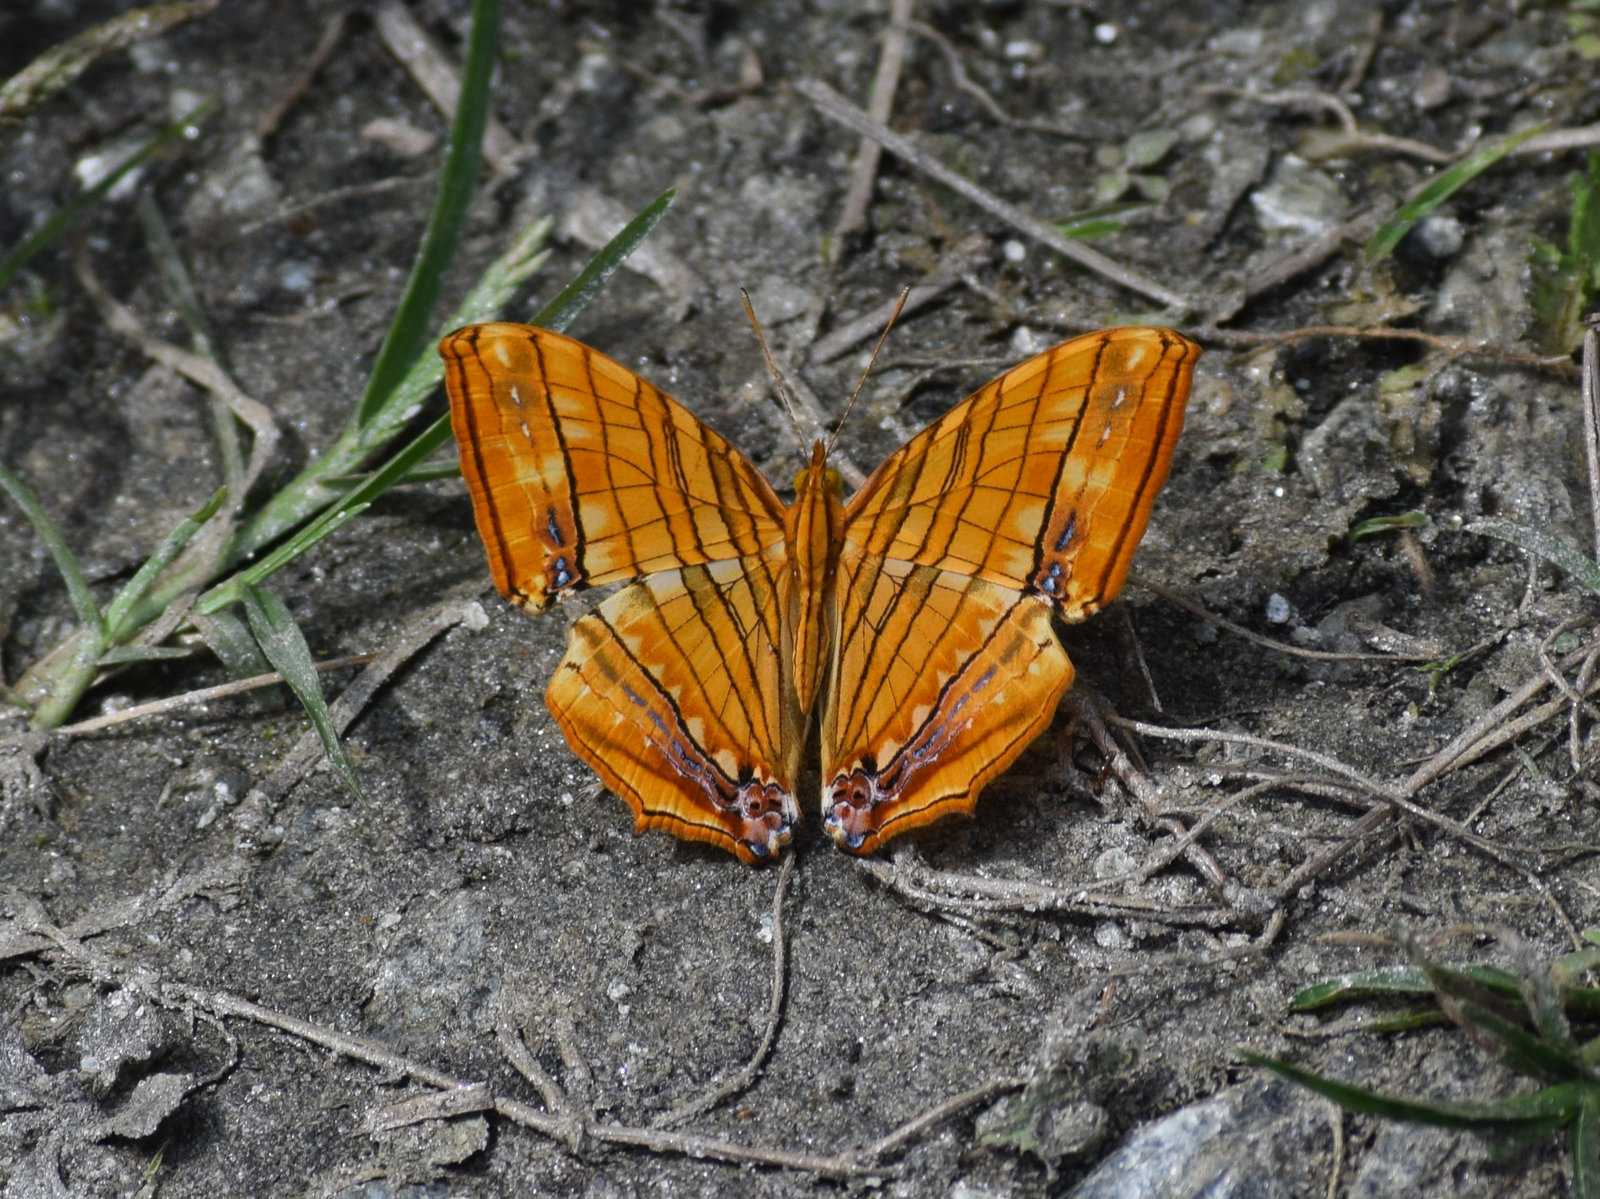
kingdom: Animalia
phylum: Arthropoda
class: Insecta
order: Lepidoptera
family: Nymphalidae
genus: Chersonesia
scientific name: Chersonesia risa
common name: Common maplet
